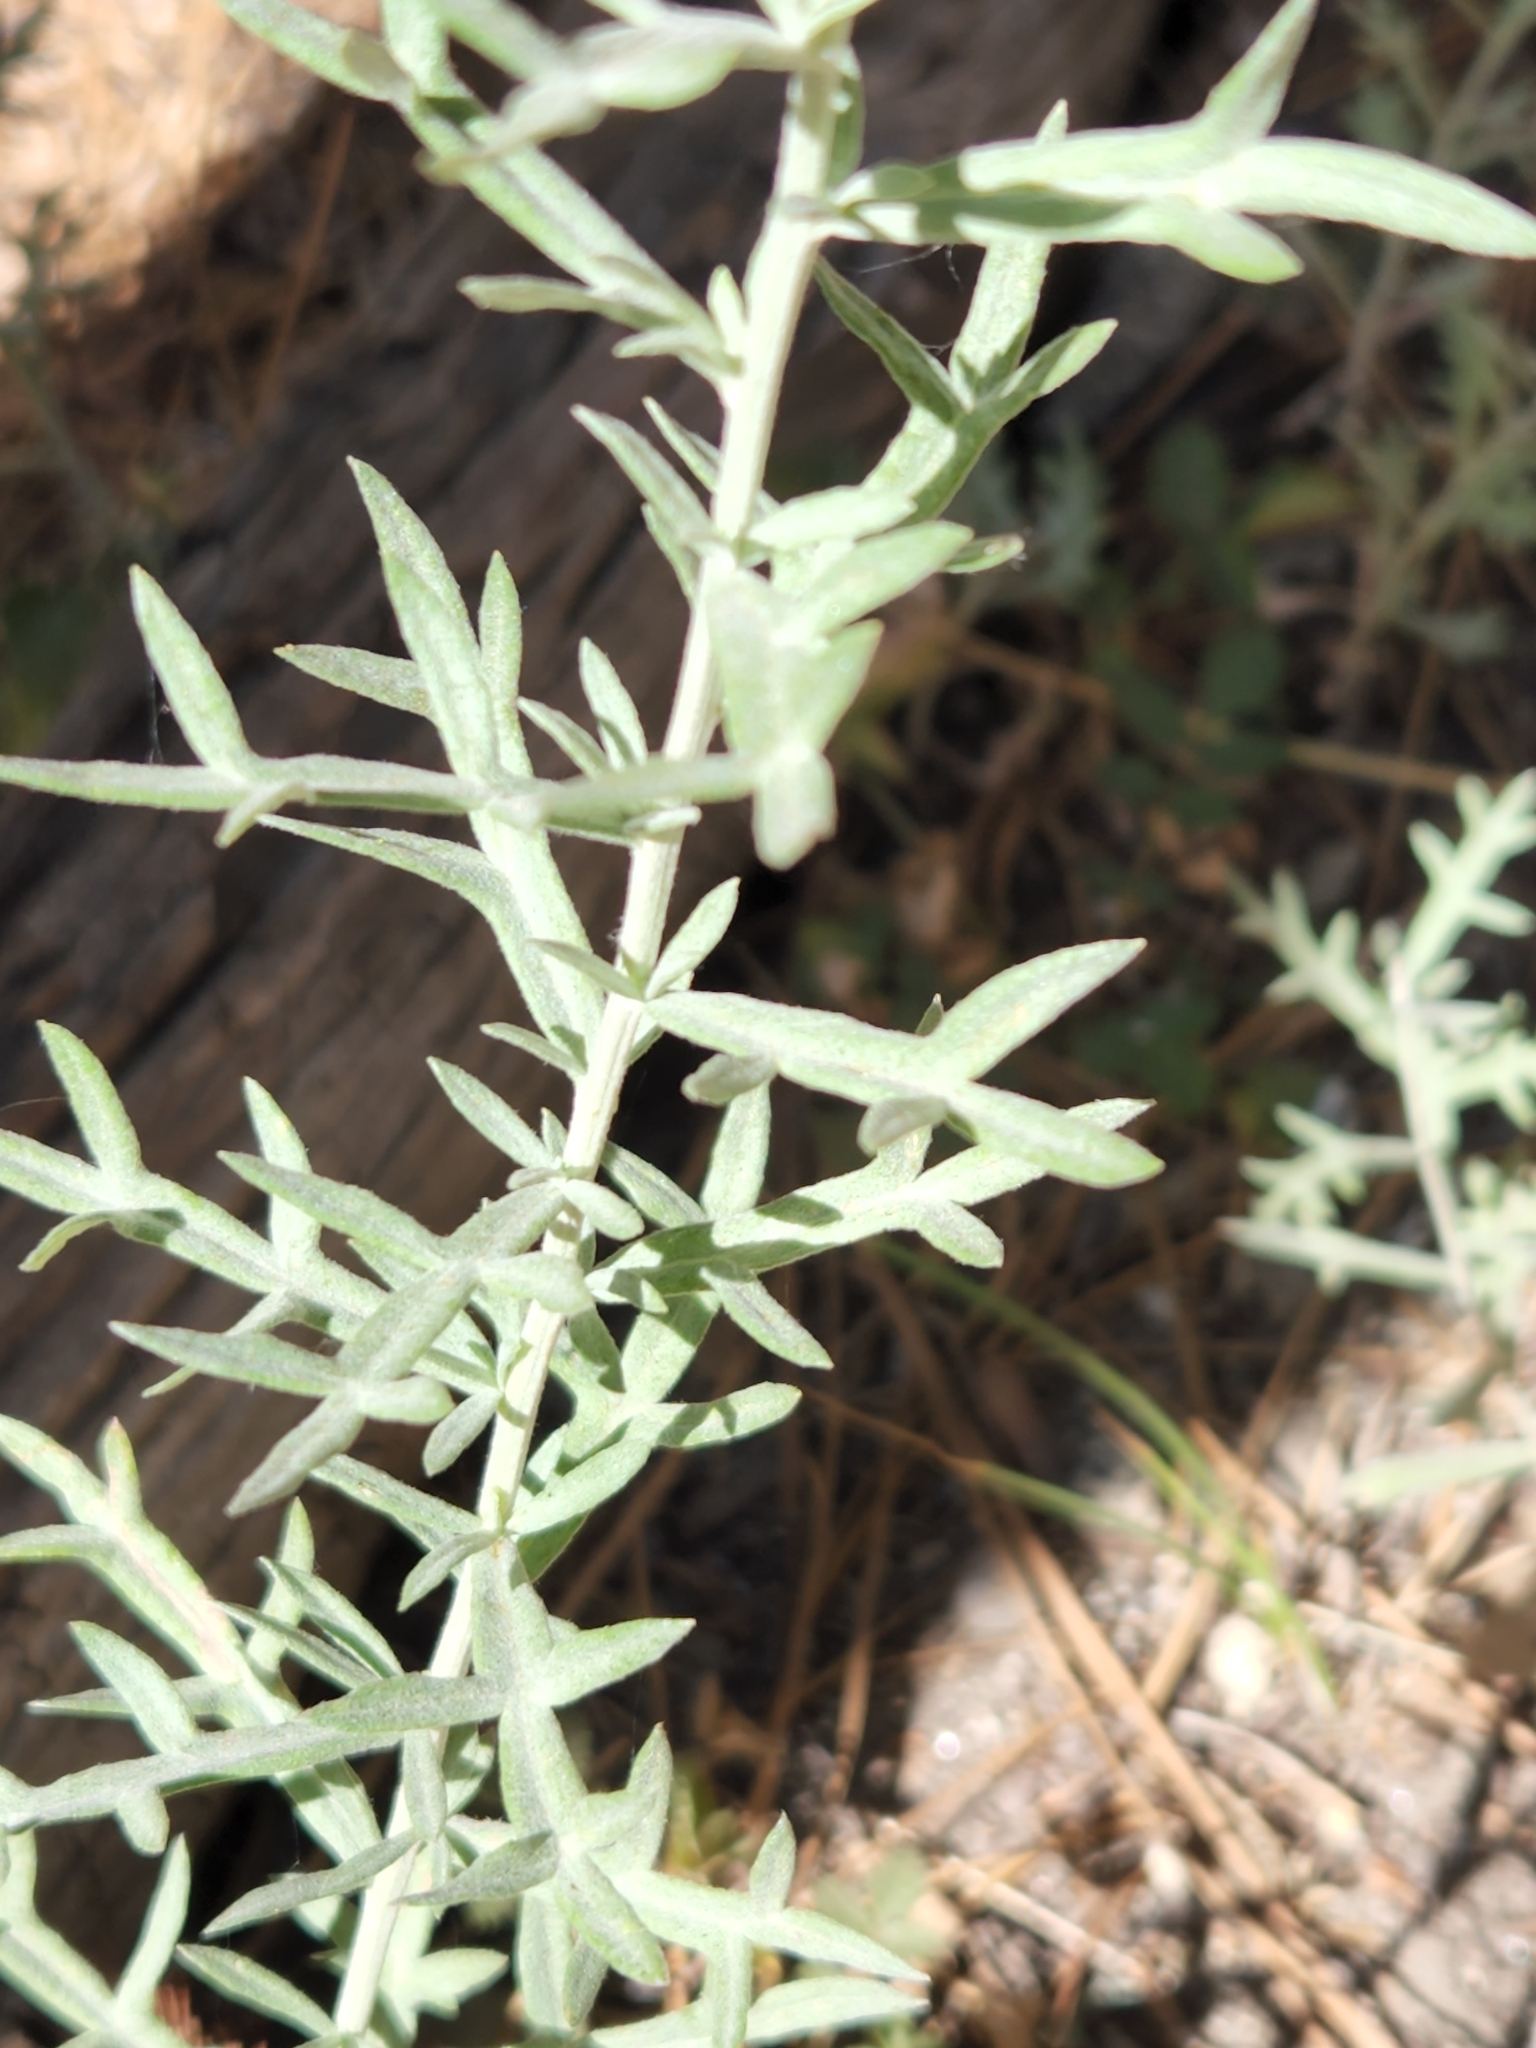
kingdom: Plantae
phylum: Tracheophyta
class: Magnoliopsida
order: Asterales
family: Asteraceae
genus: Artemisia
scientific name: Artemisia ludoviciana
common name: Western mugwort
